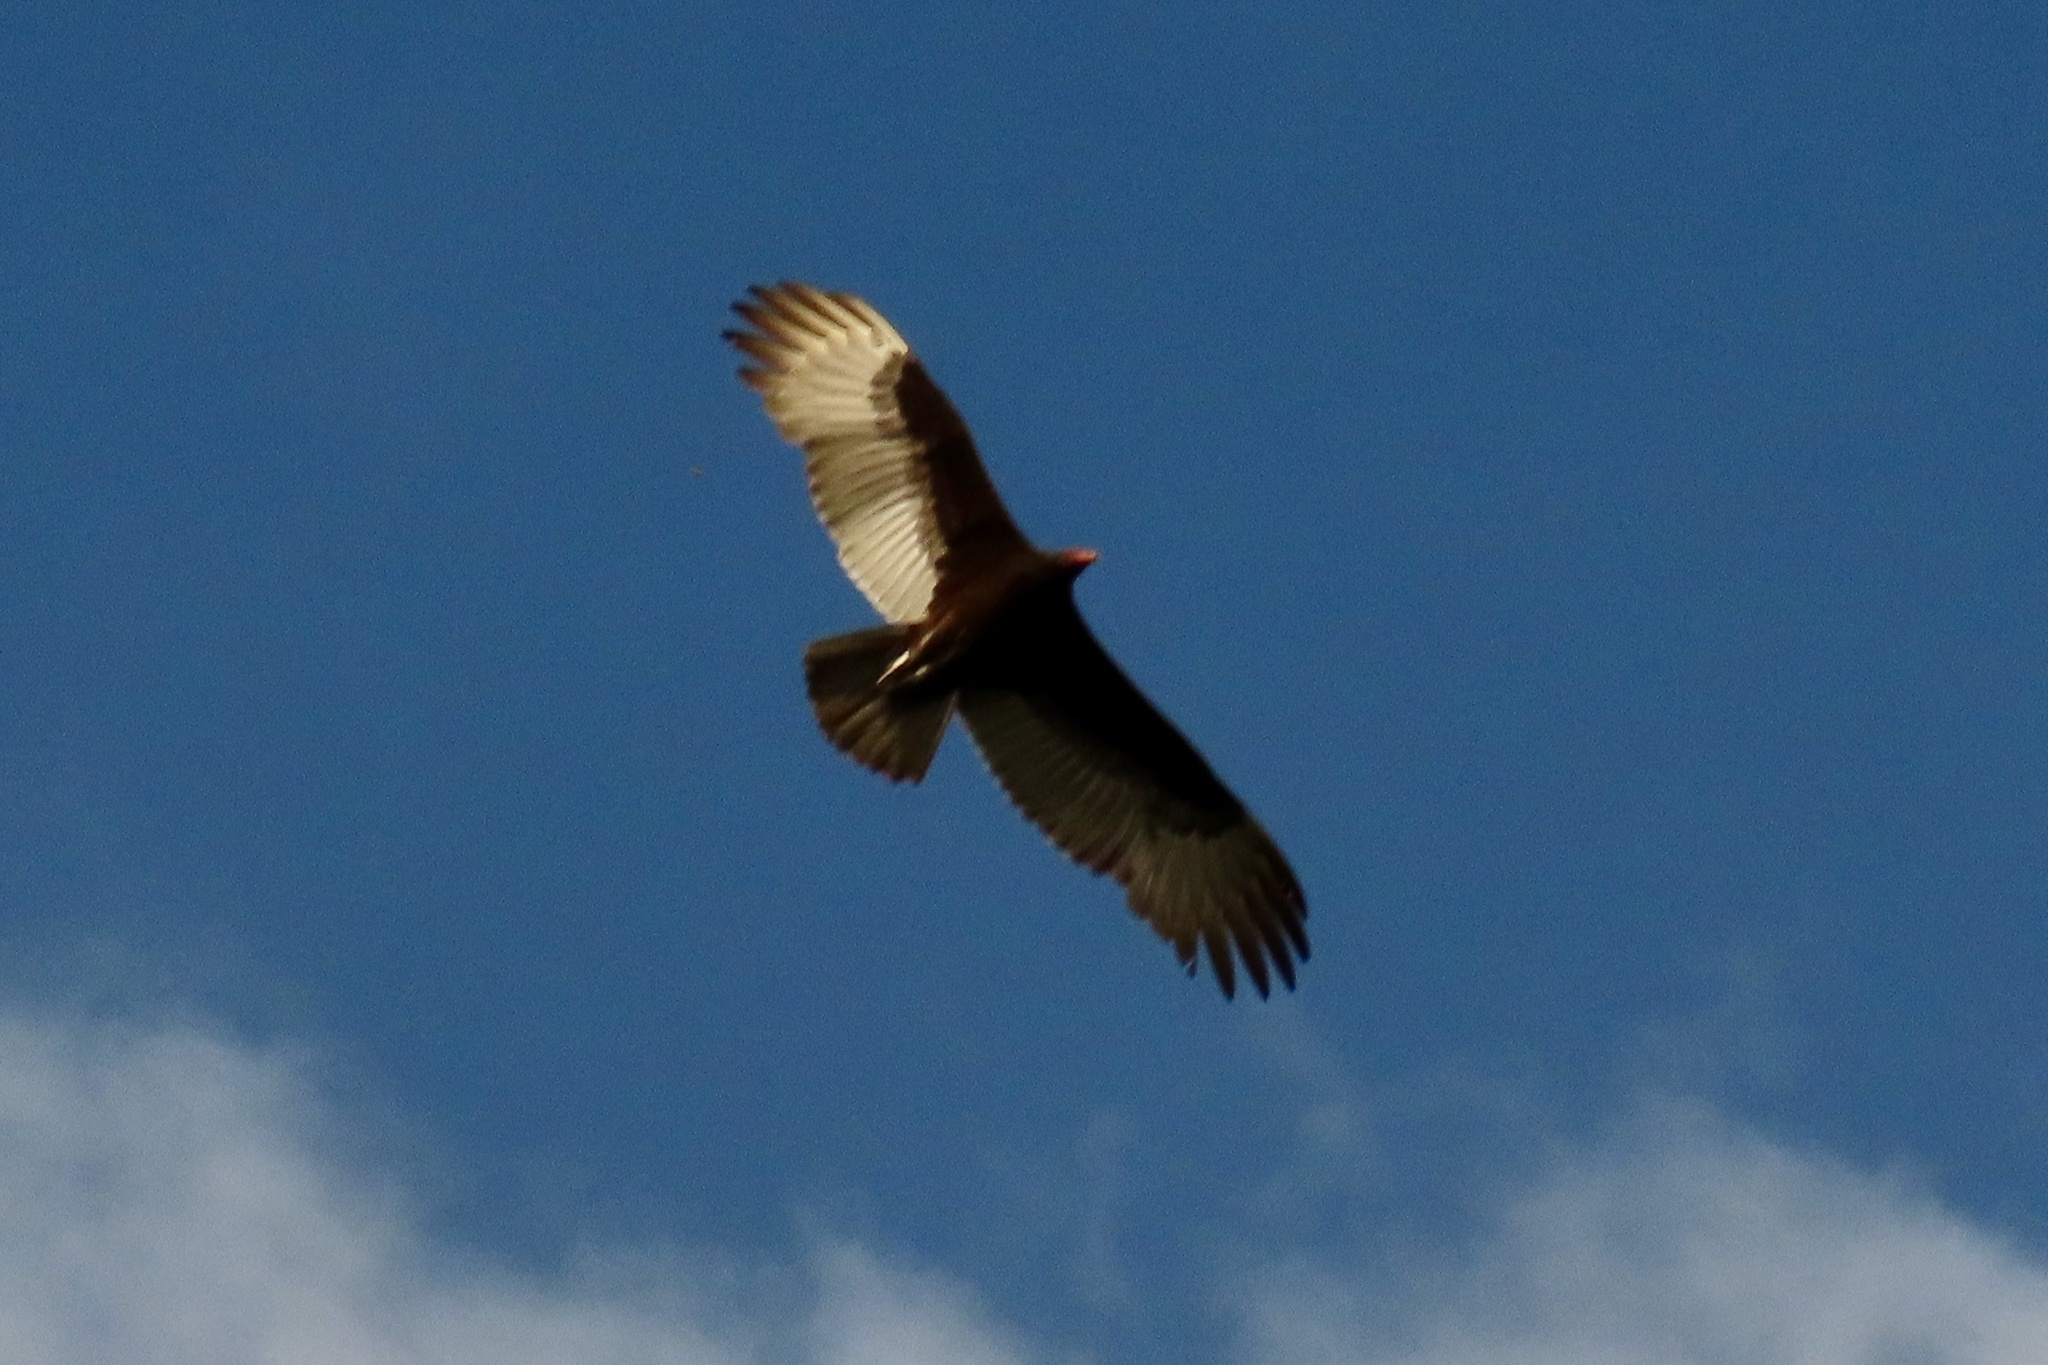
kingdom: Animalia
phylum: Chordata
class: Aves
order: Accipitriformes
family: Cathartidae
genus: Cathartes
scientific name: Cathartes aura
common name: Turkey vulture
